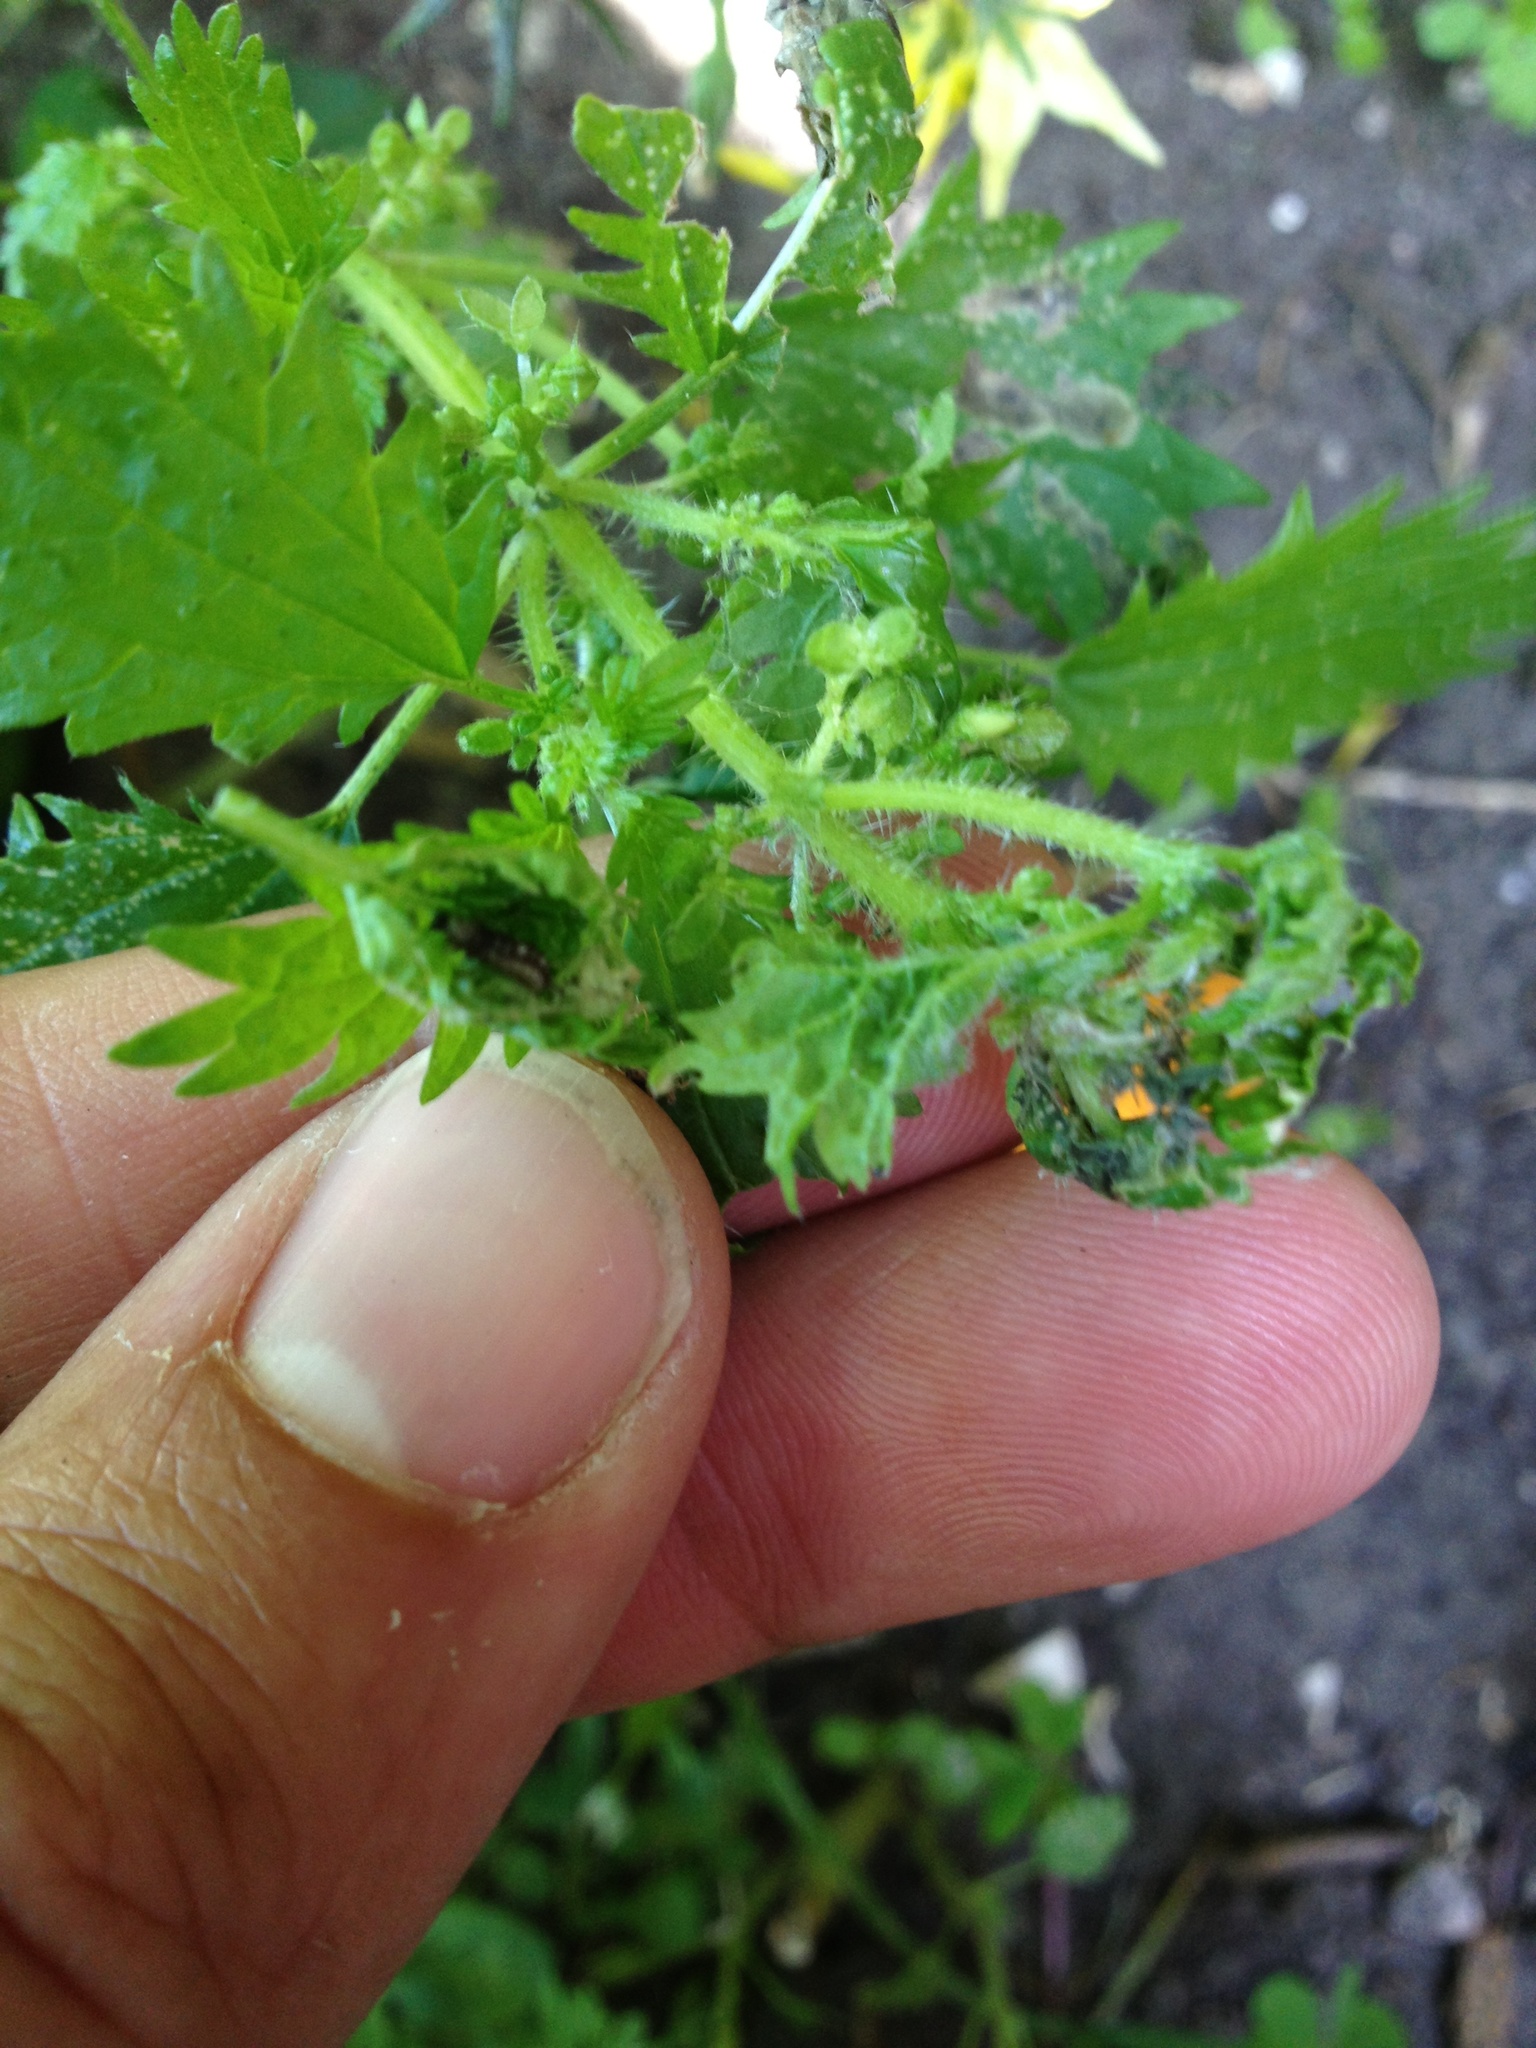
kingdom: Animalia
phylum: Arthropoda
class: Insecta
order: Lepidoptera
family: Nymphalidae
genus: Vanessa
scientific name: Vanessa itea
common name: Yellow admiral
